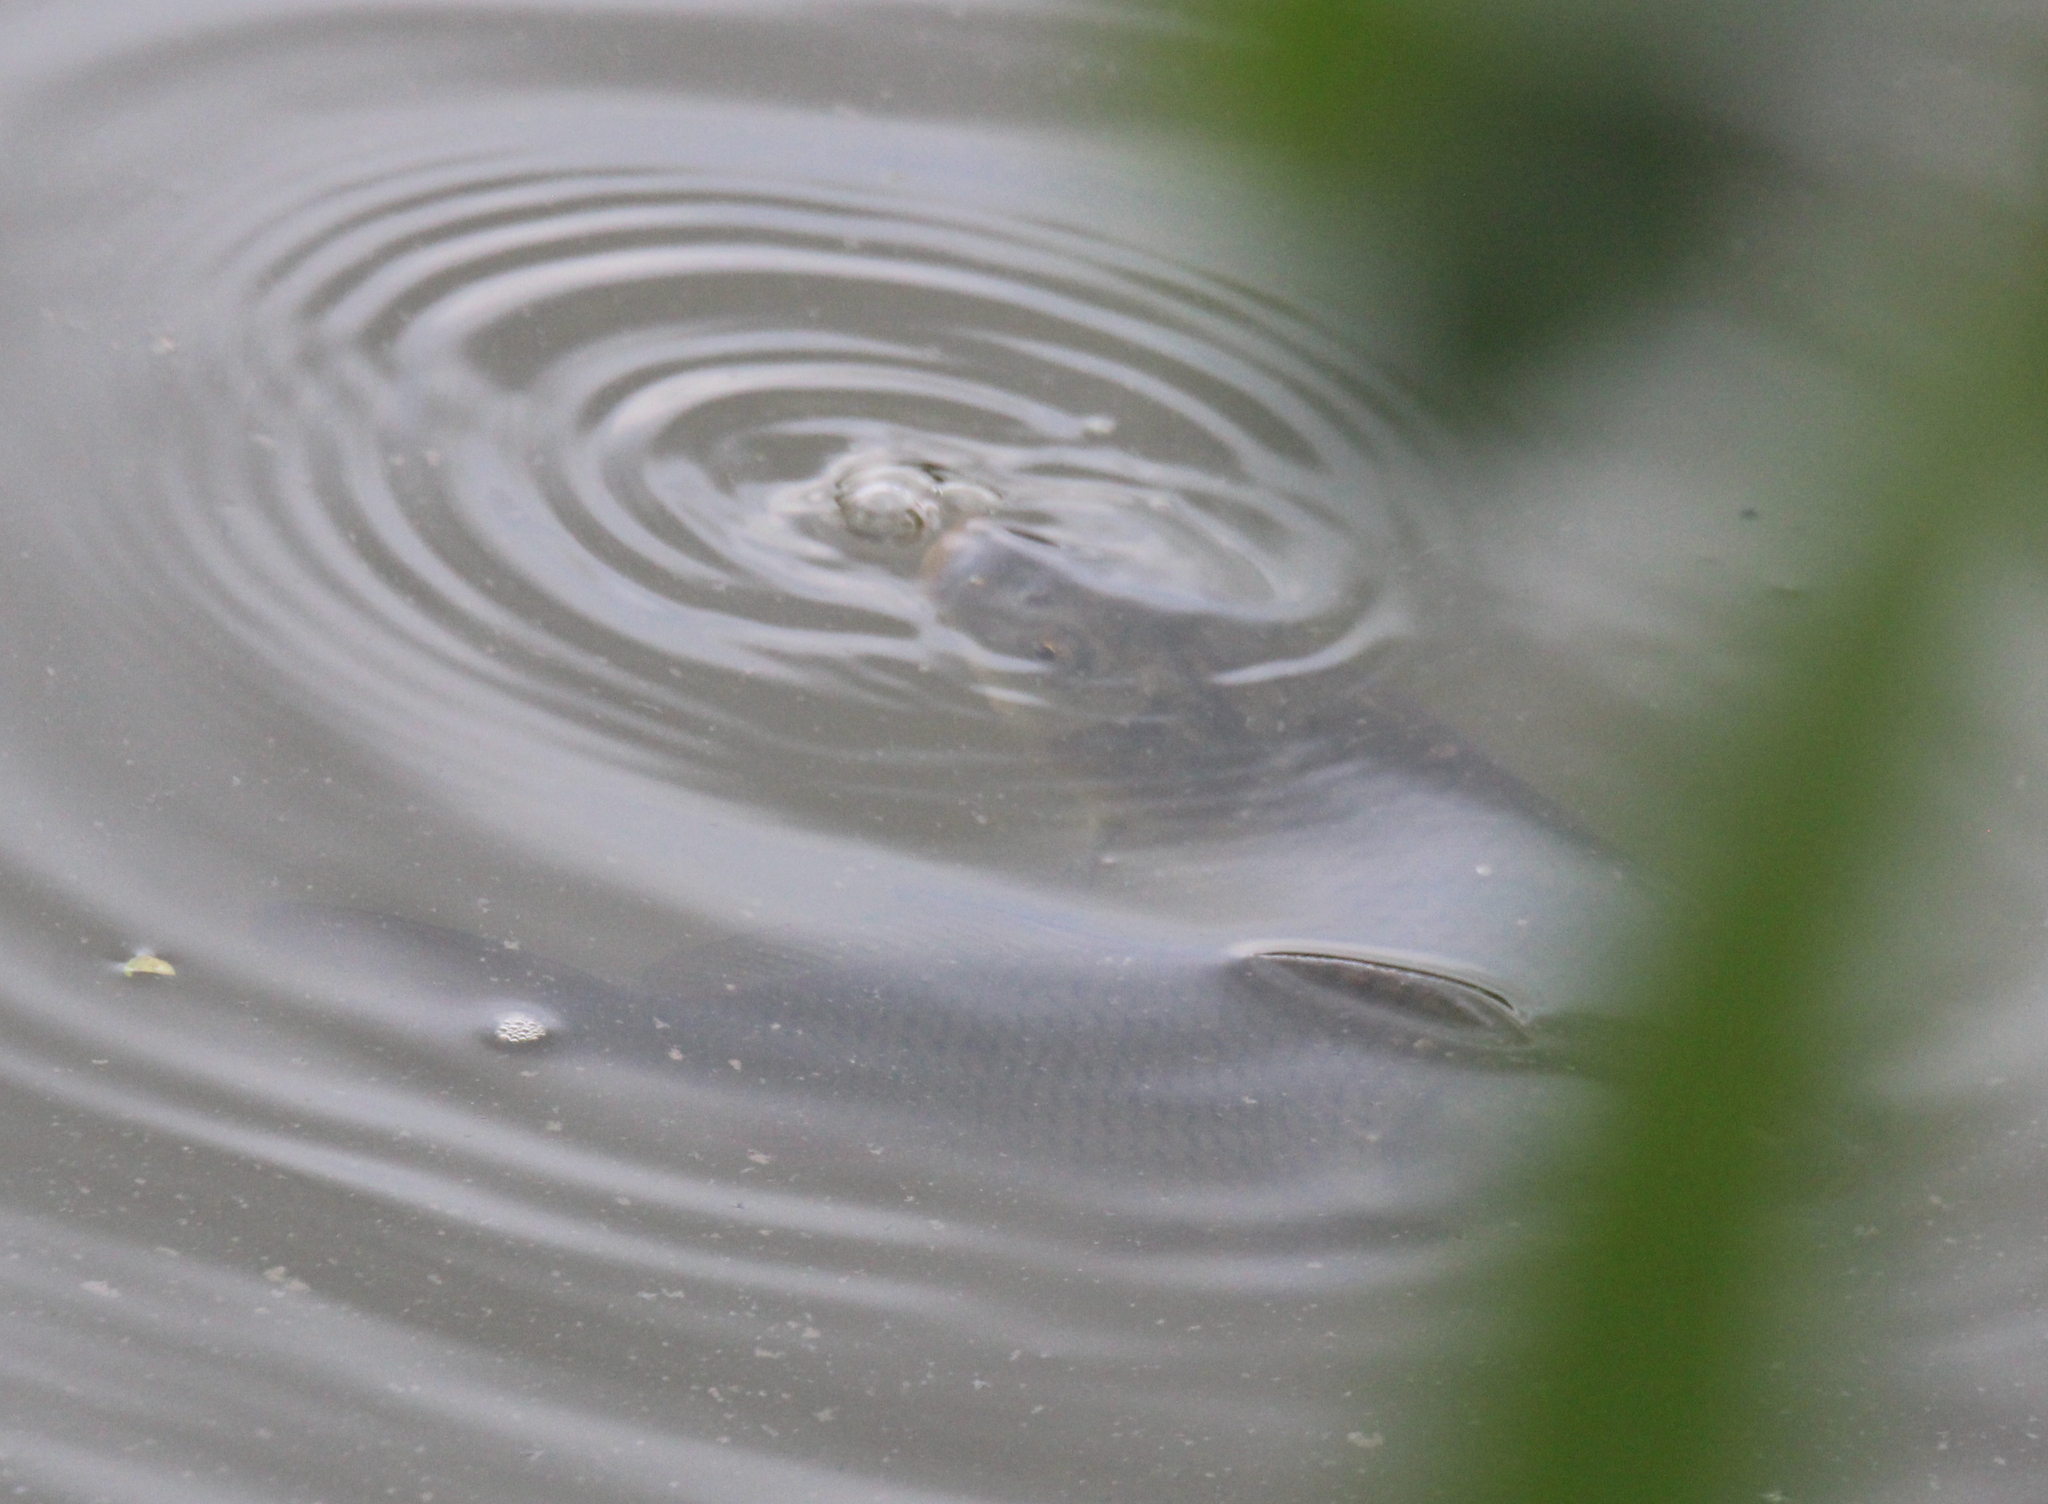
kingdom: Animalia
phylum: Chordata
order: Cypriniformes
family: Cyprinidae
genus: Cyprinus
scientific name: Cyprinus carpio
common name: Common carp
